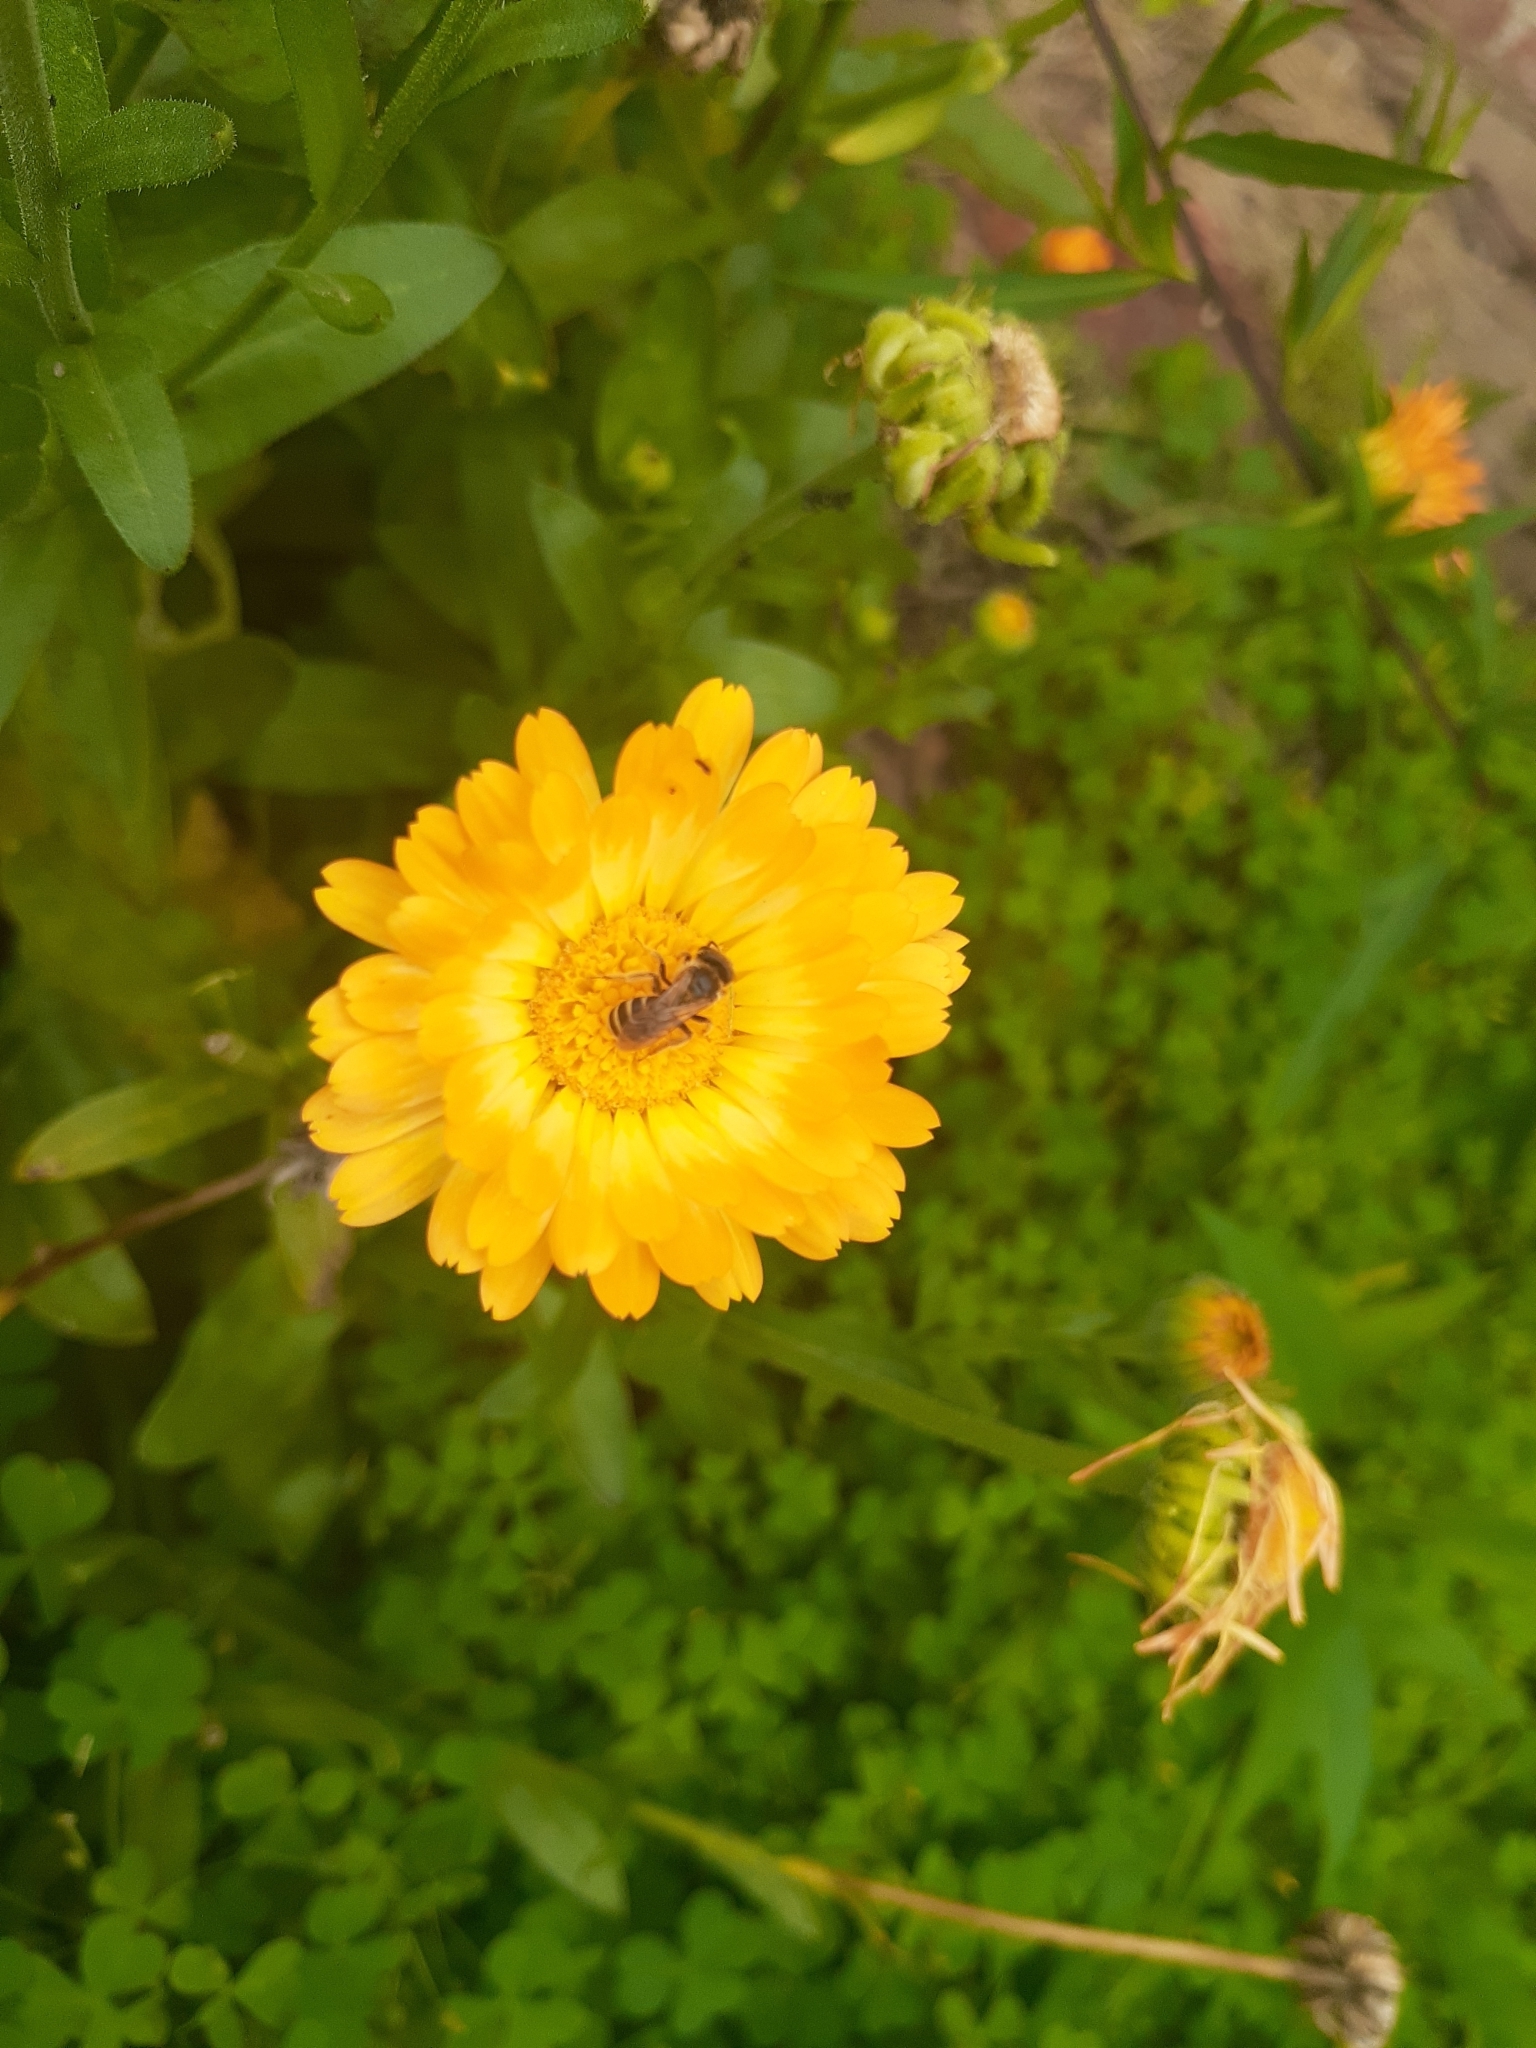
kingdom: Animalia
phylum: Arthropoda
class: Insecta
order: Hymenoptera
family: Halictidae
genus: Halictus
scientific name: Halictus ligatus
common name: Ligated furrow bee
